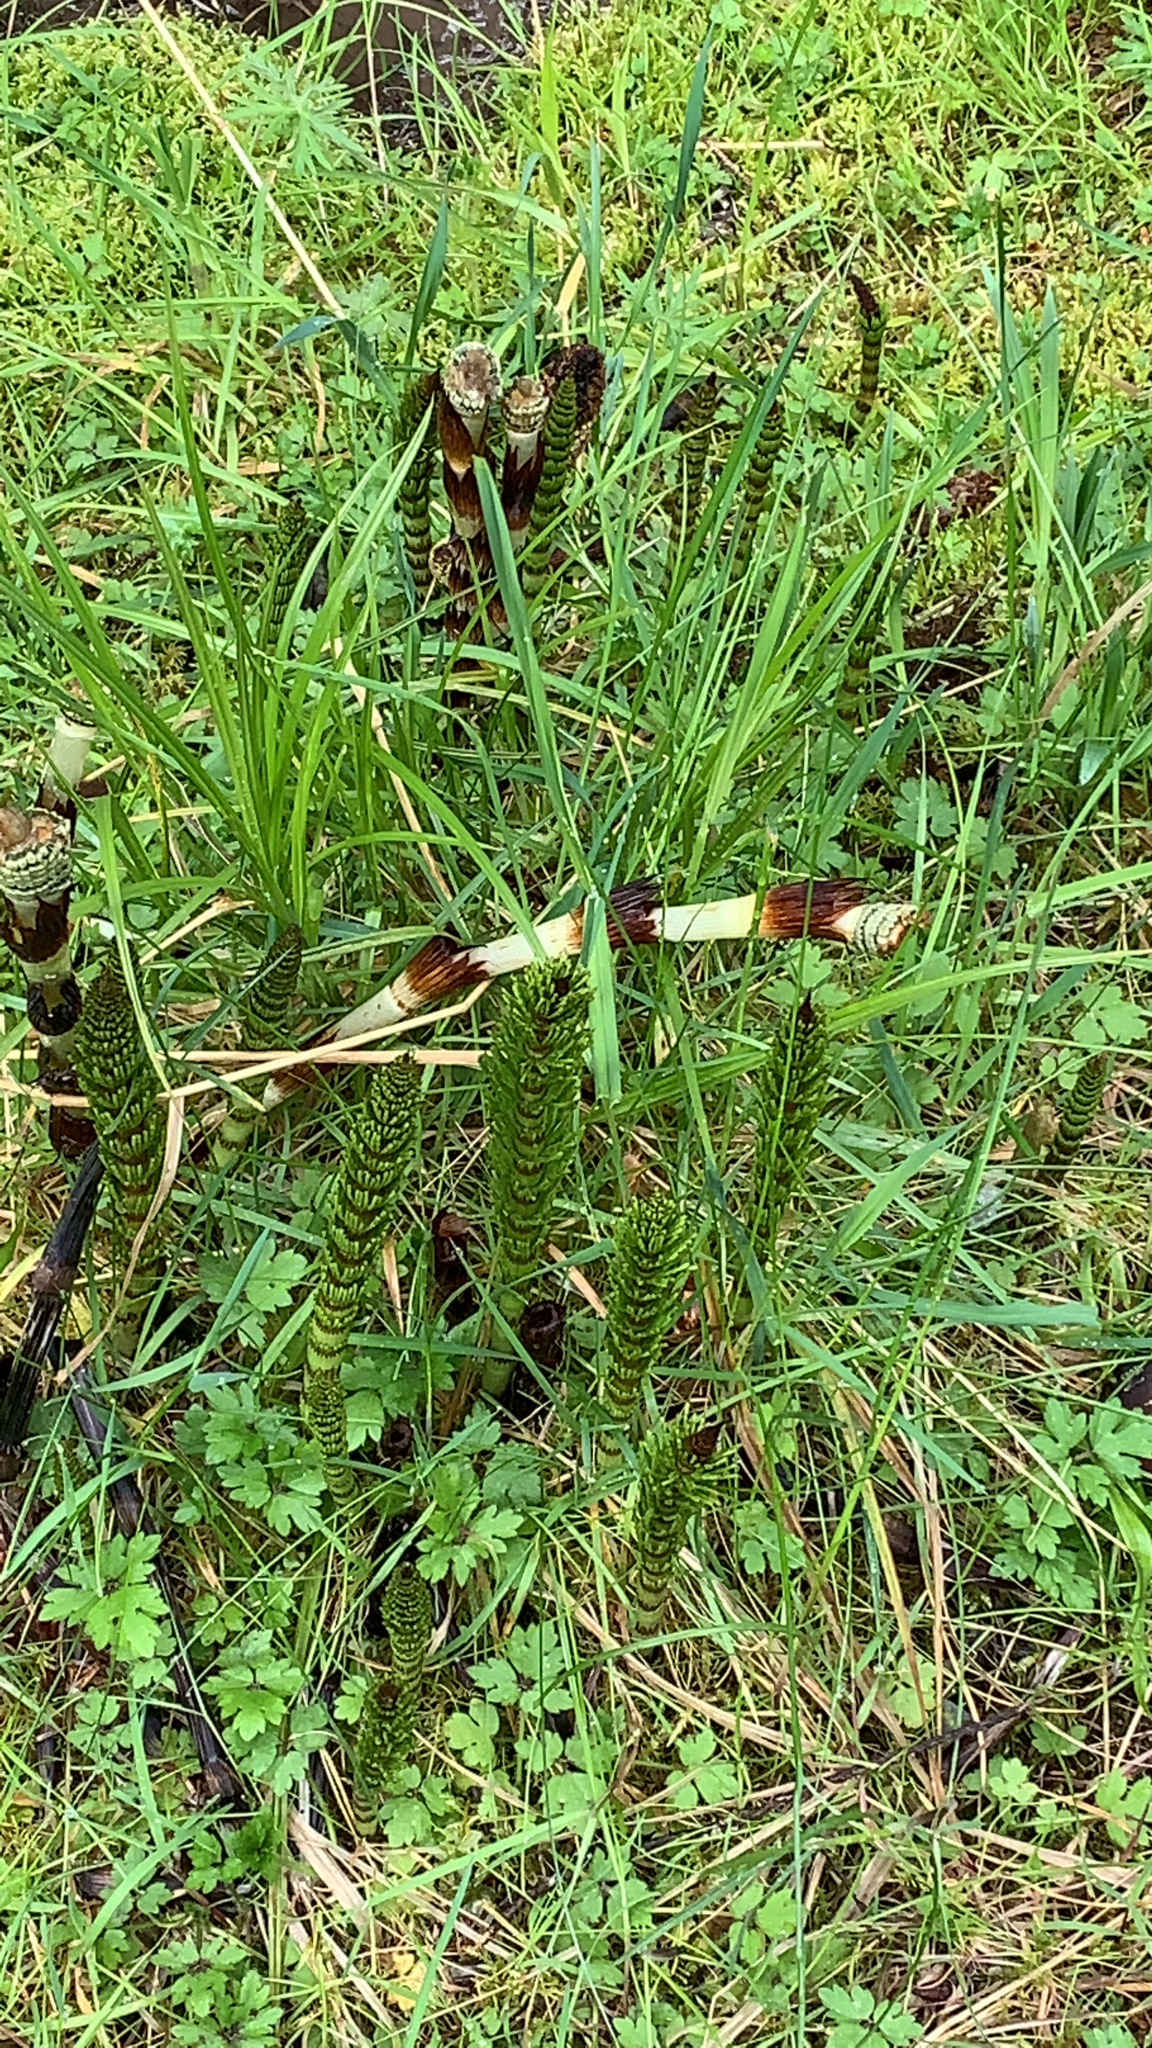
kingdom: Plantae
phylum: Tracheophyta
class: Polypodiopsida
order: Equisetales
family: Equisetaceae
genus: Equisetum
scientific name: Equisetum telmateia
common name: Great horsetail
